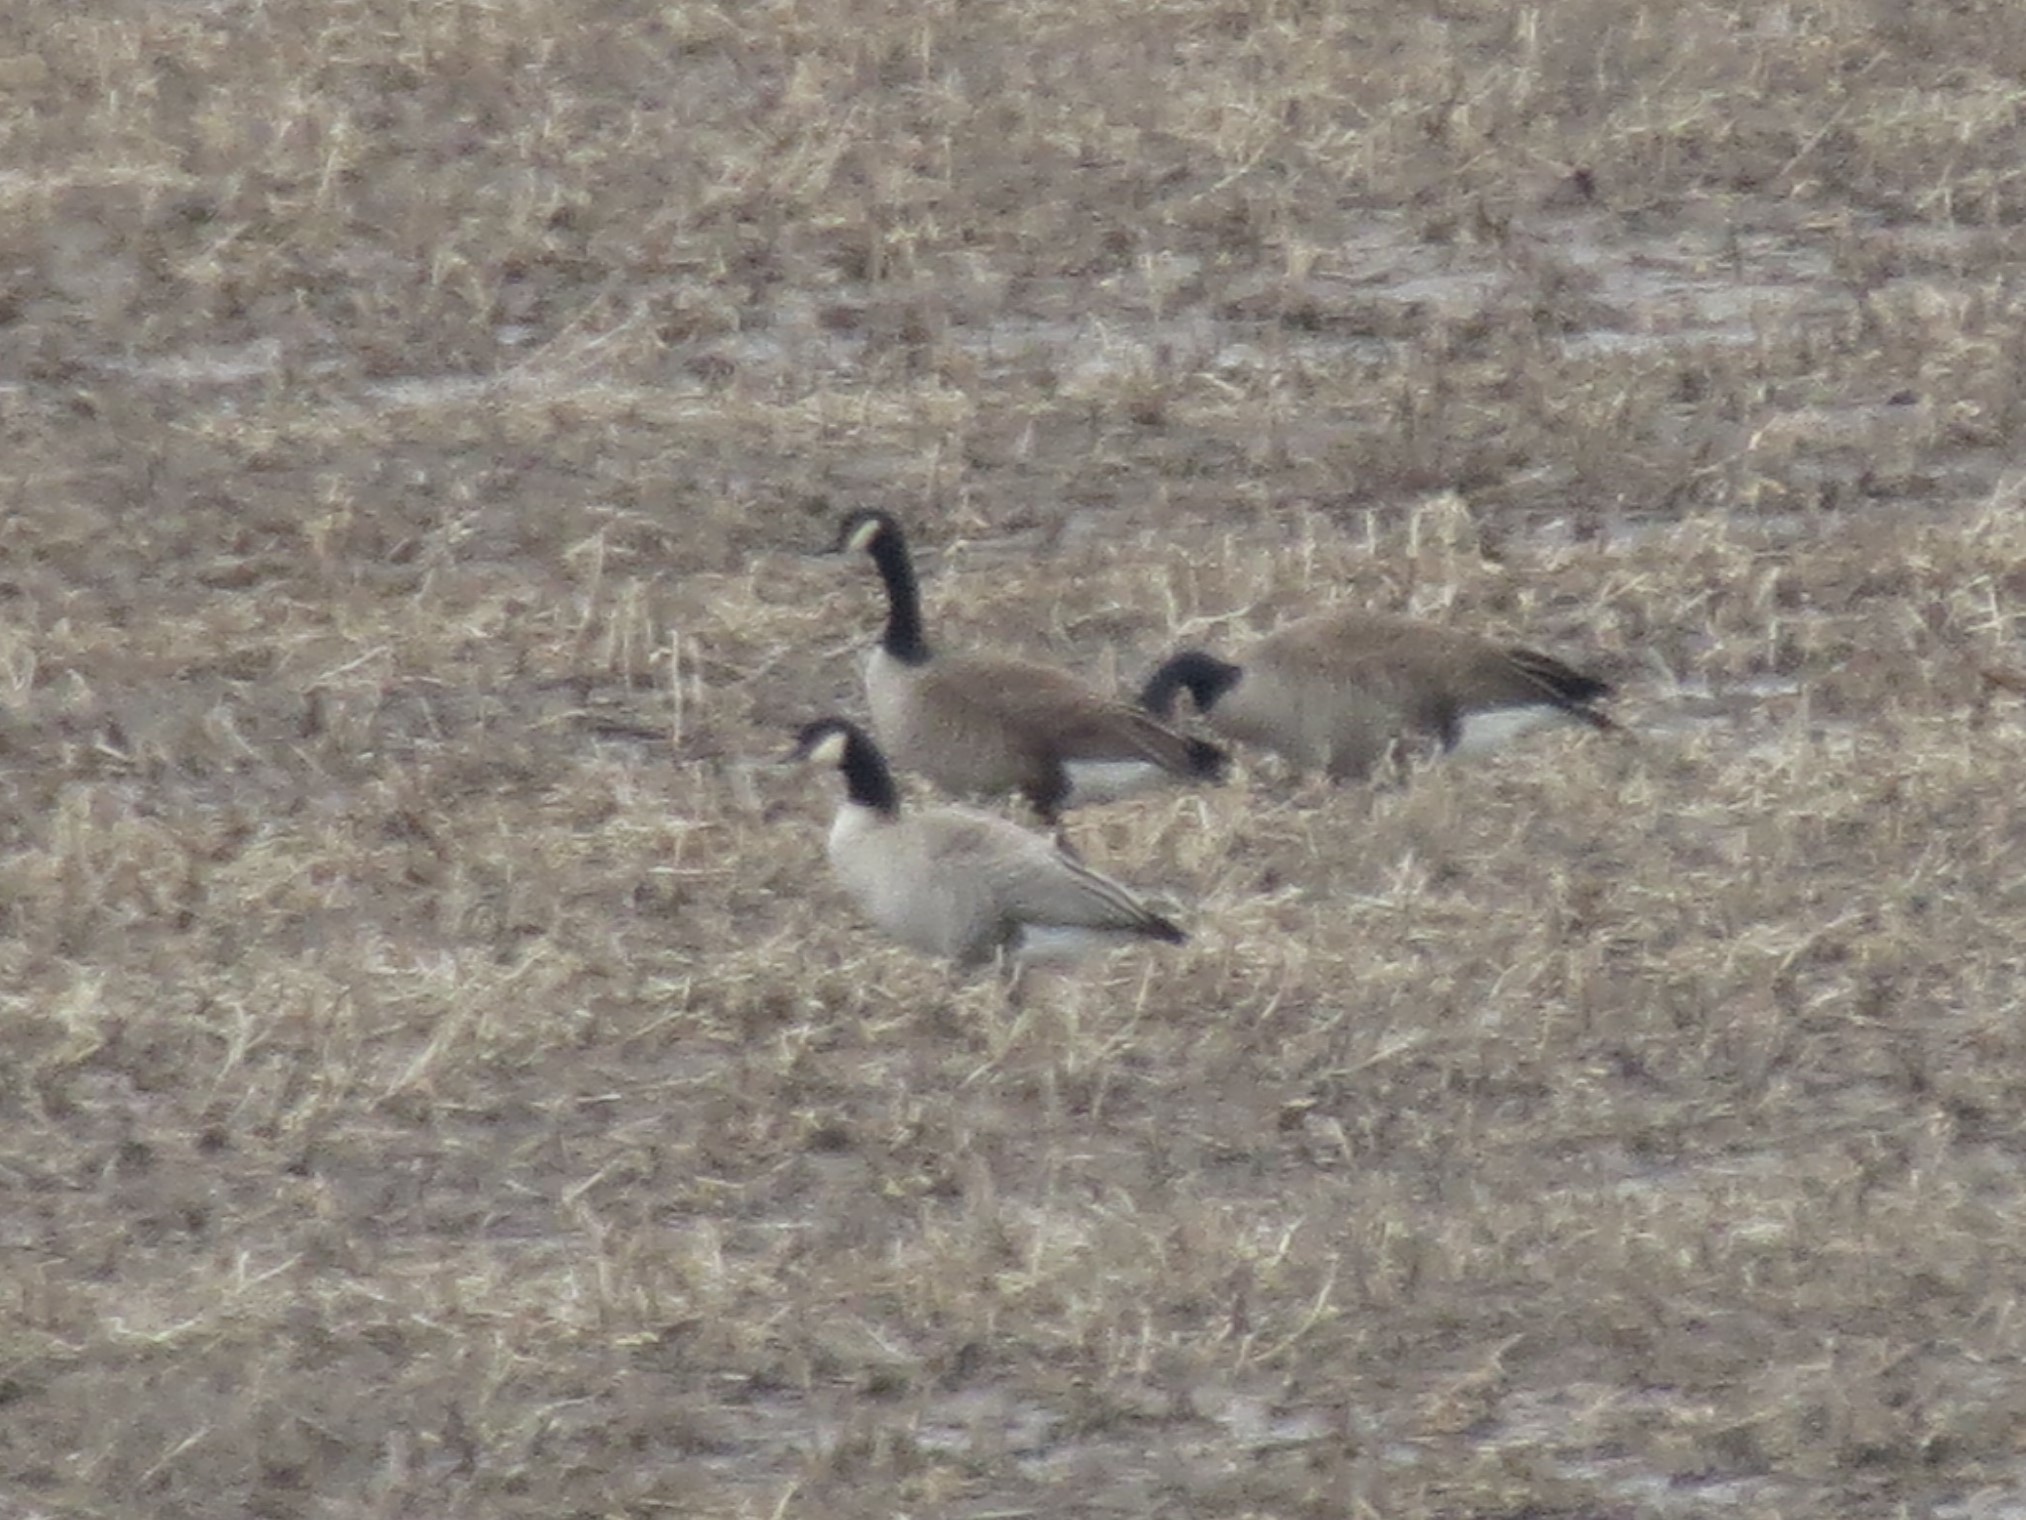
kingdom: Animalia
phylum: Chordata
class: Aves
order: Anseriformes
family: Anatidae
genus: Branta
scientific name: Branta canadensis
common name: Canada goose
